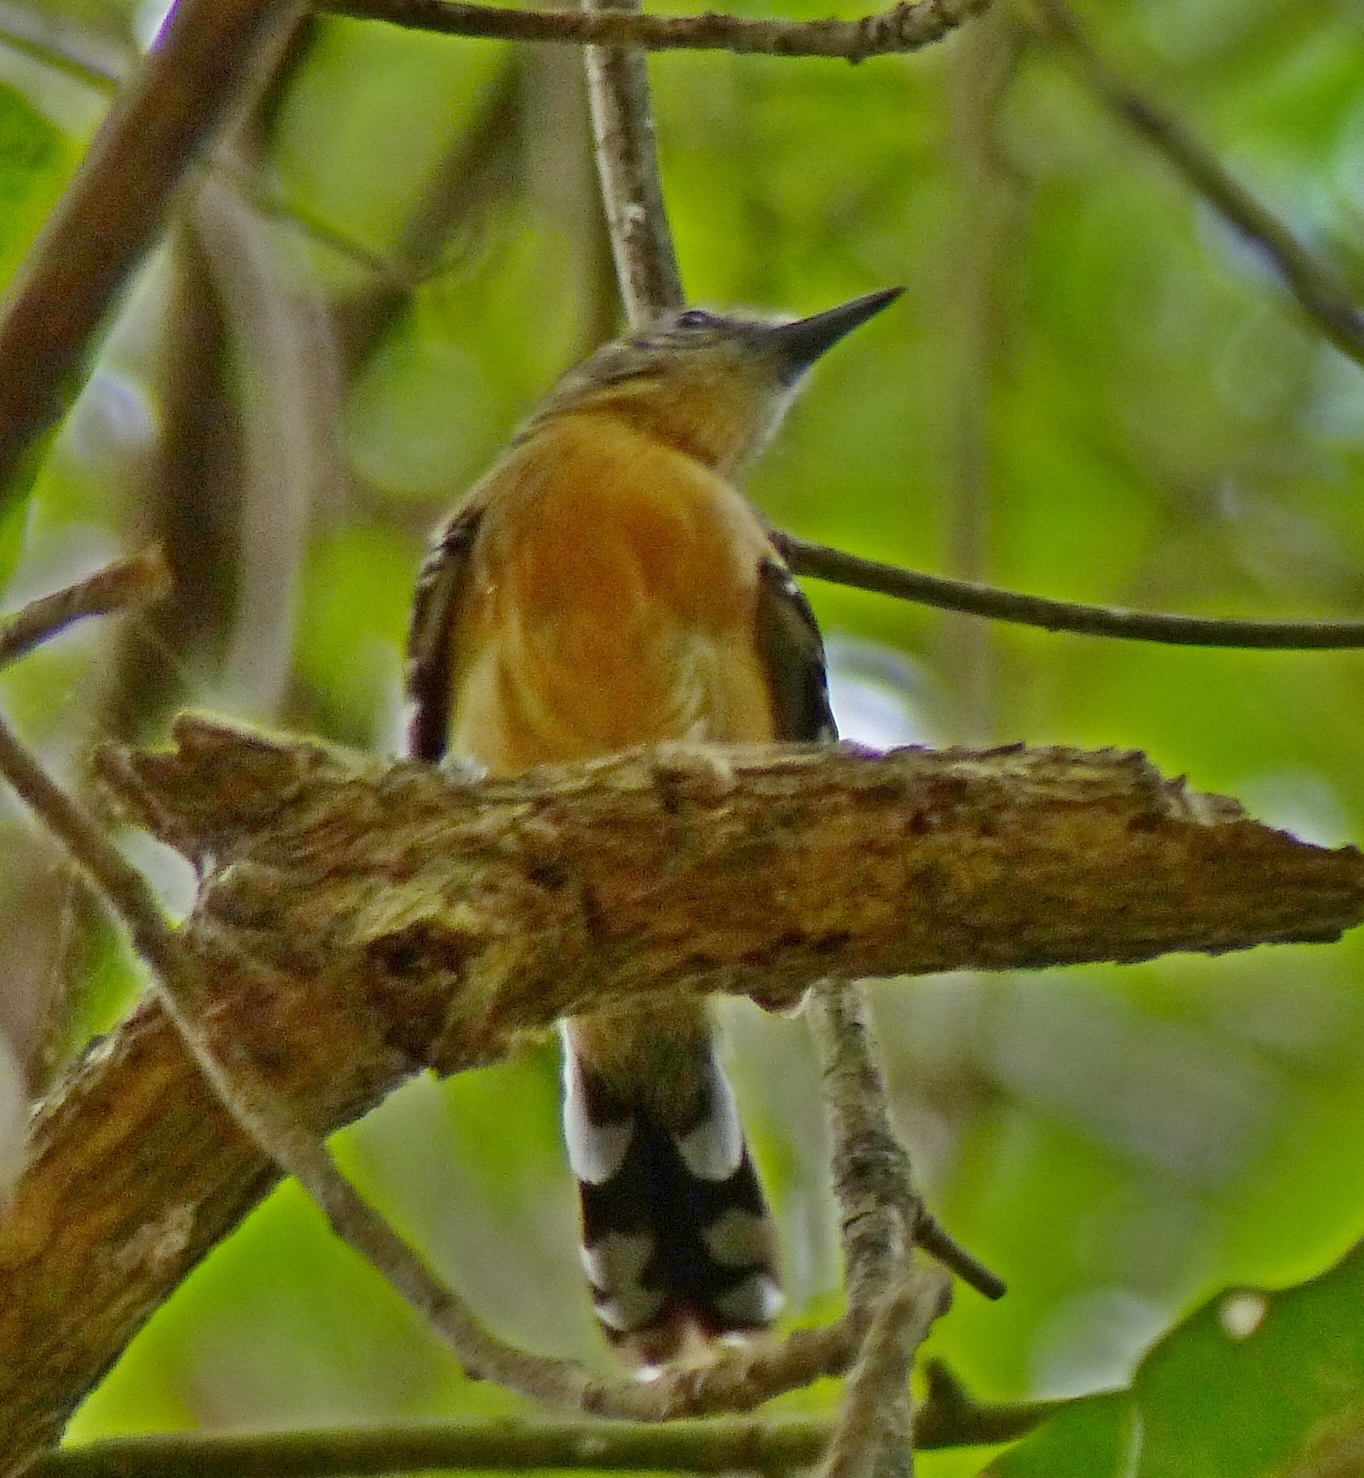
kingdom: Animalia
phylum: Chordata
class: Aves
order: Passeriformes
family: Thamnophilidae
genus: Formicivora
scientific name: Formicivora grisea
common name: Southern white-fringed antwren
